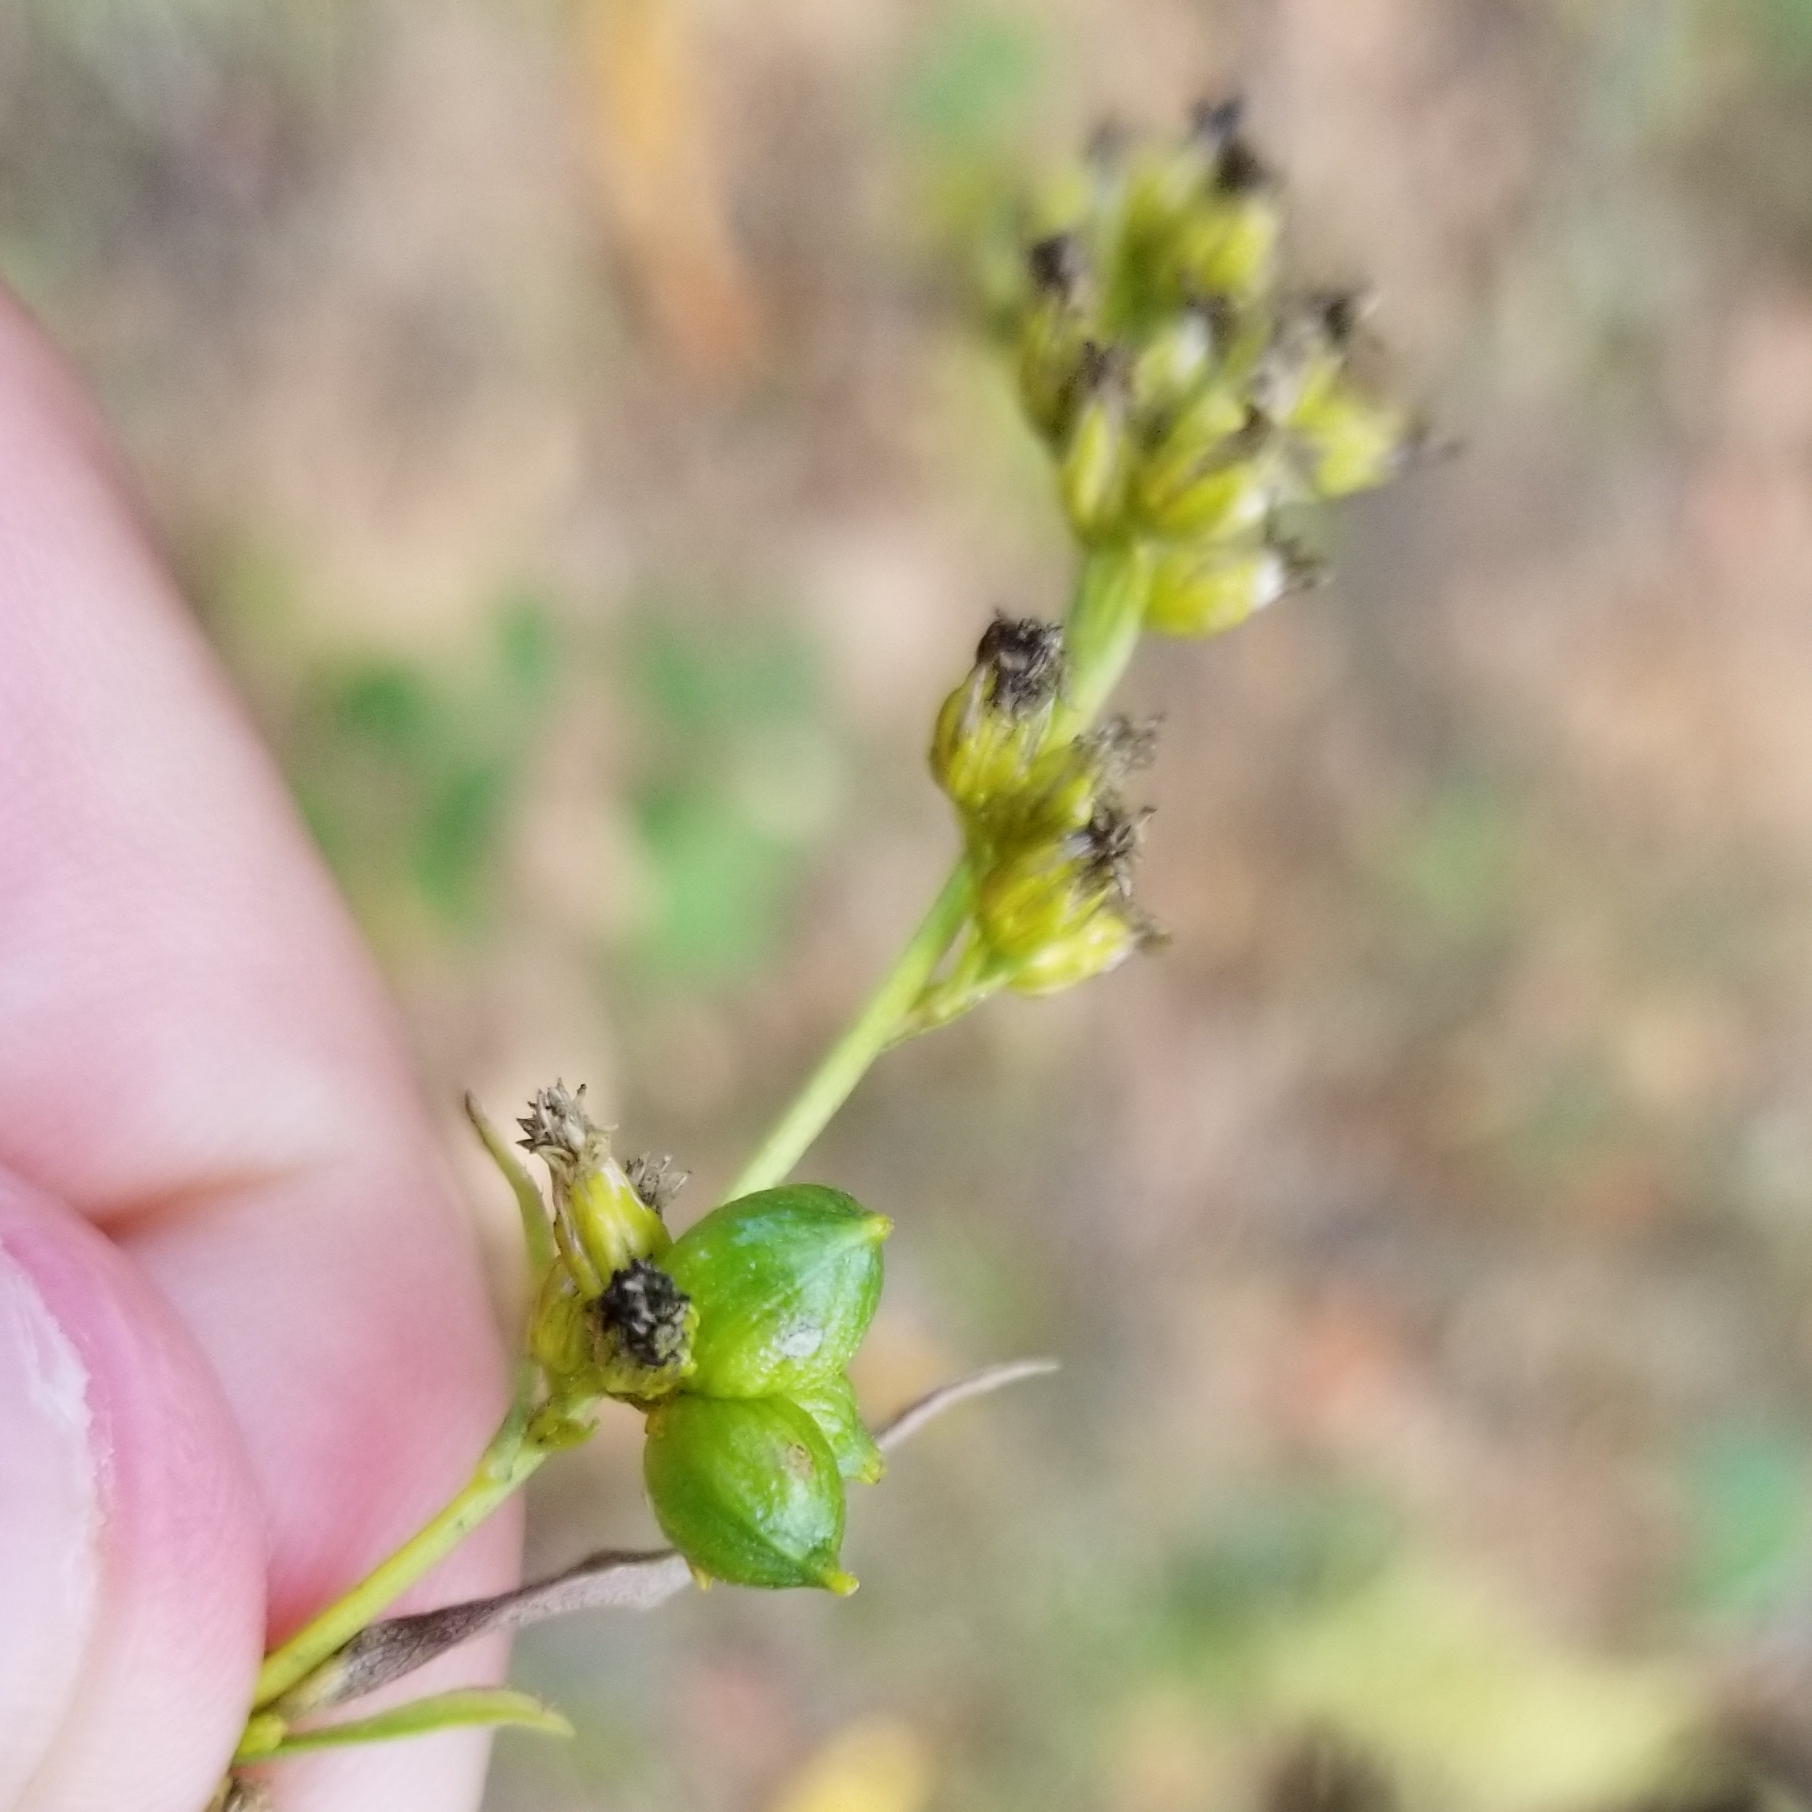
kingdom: Animalia
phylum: Arthropoda
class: Insecta
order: Diptera
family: Cecidomyiidae
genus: Schizomyia
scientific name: Schizomyia racemicola
